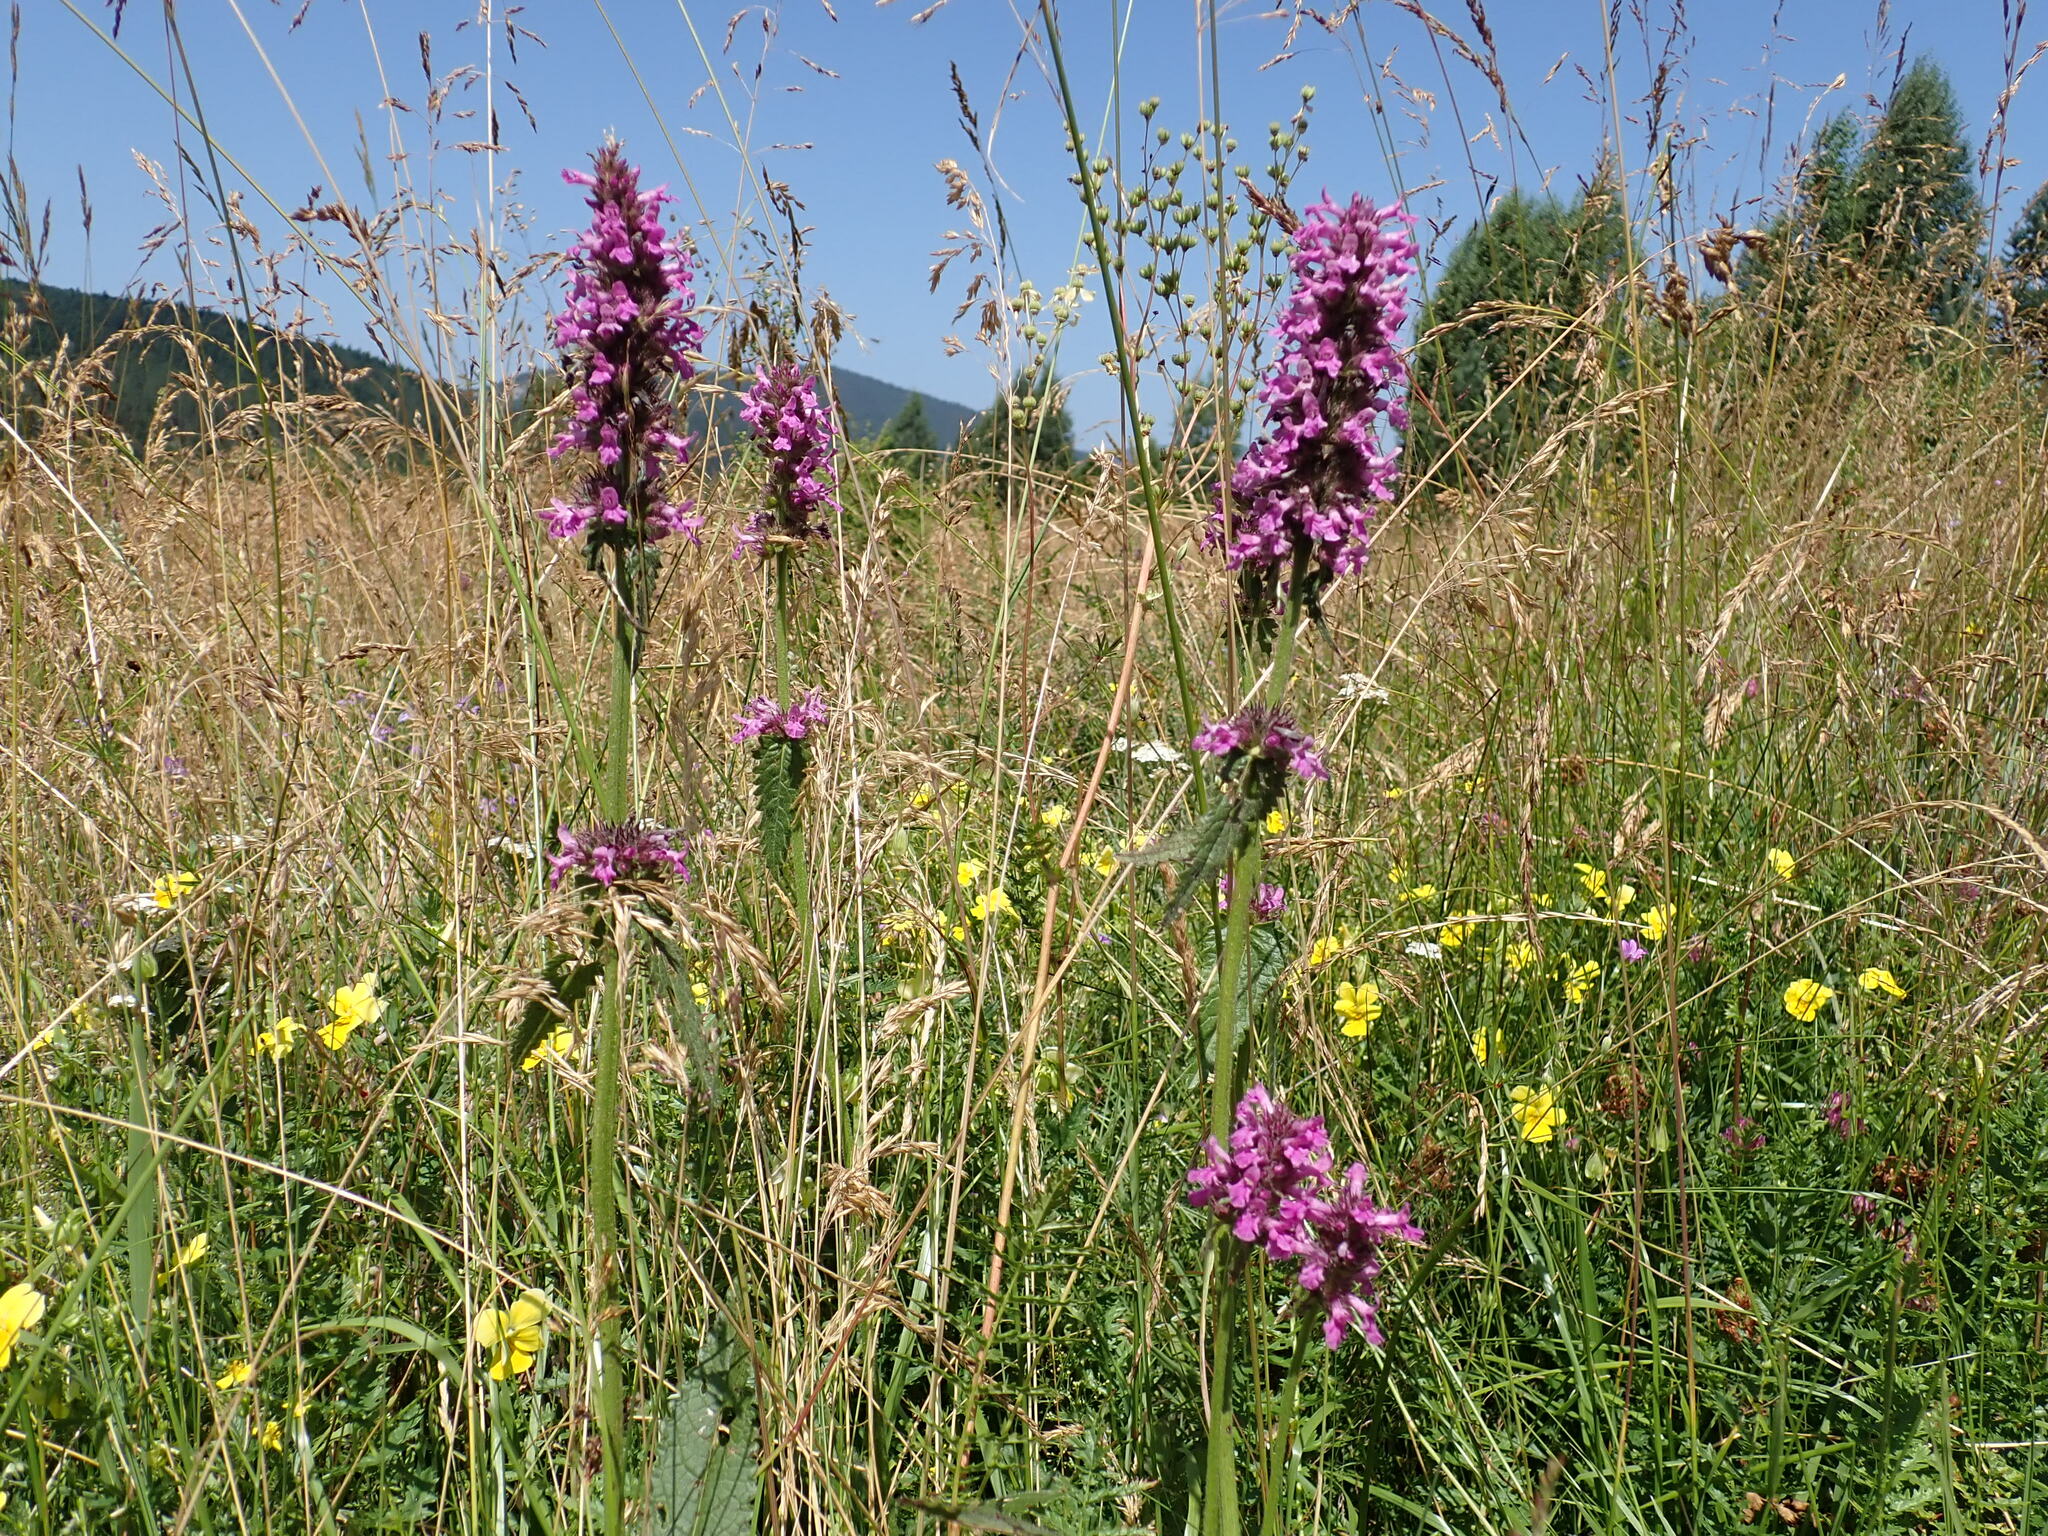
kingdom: Plantae
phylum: Tracheophyta
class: Magnoliopsida
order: Lamiales
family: Lamiaceae
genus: Betonica
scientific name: Betonica officinalis
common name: Bishop's-wort
